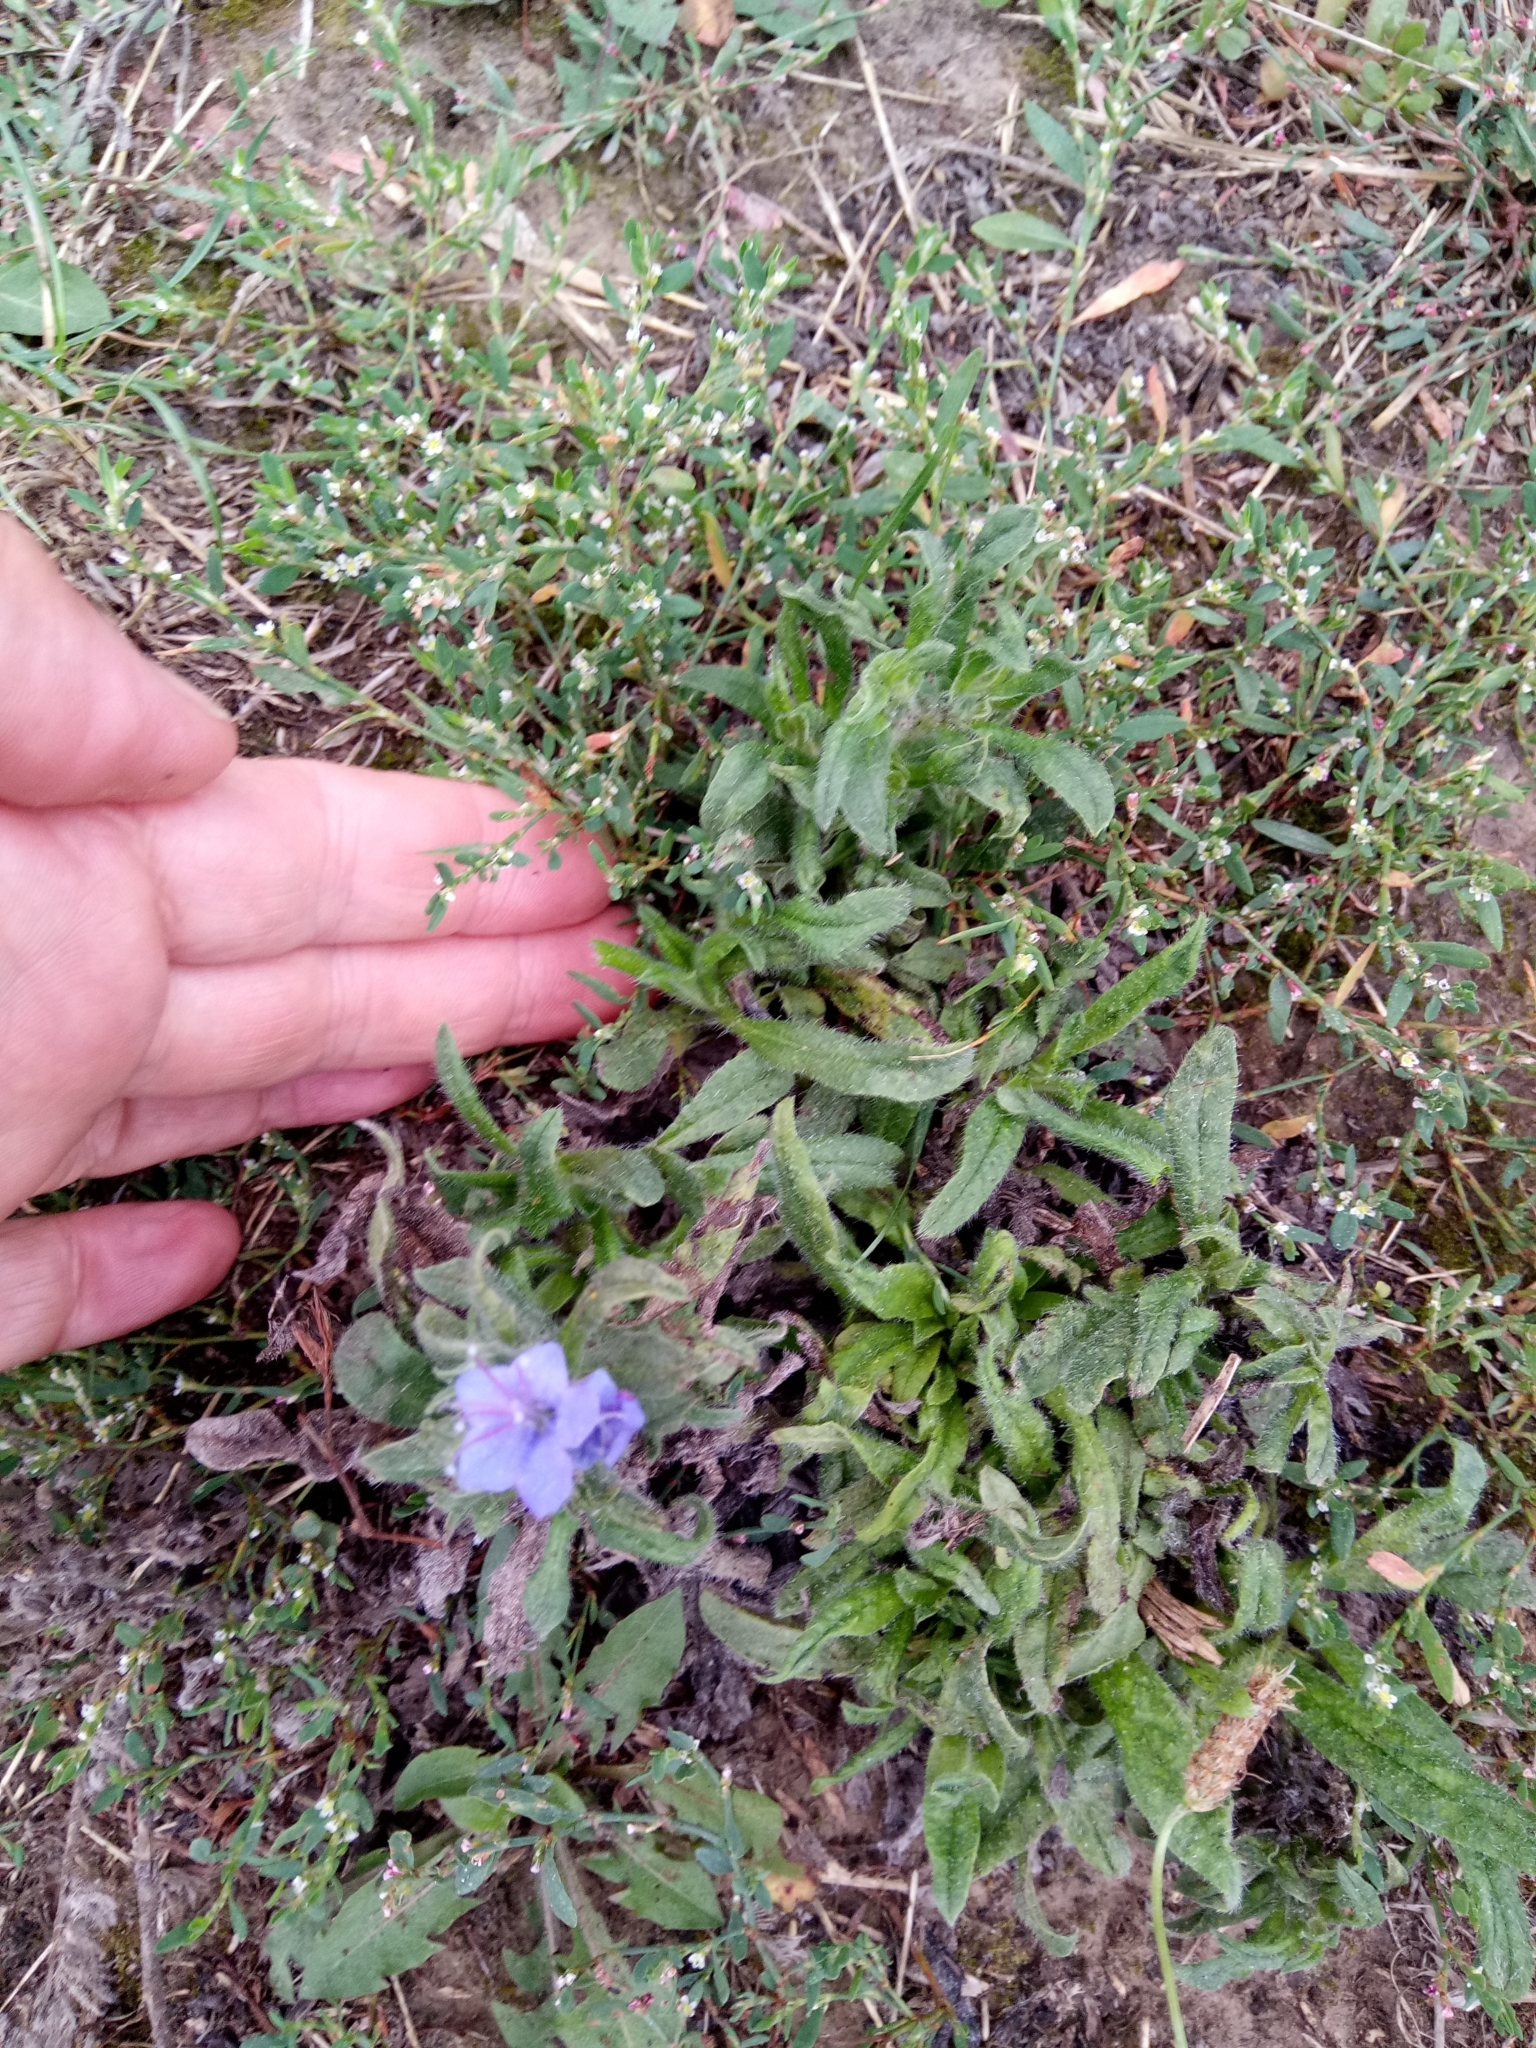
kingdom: Plantae
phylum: Tracheophyta
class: Magnoliopsida
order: Boraginales
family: Boraginaceae
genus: Echium
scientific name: Echium vulgare
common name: Common viper's bugloss
